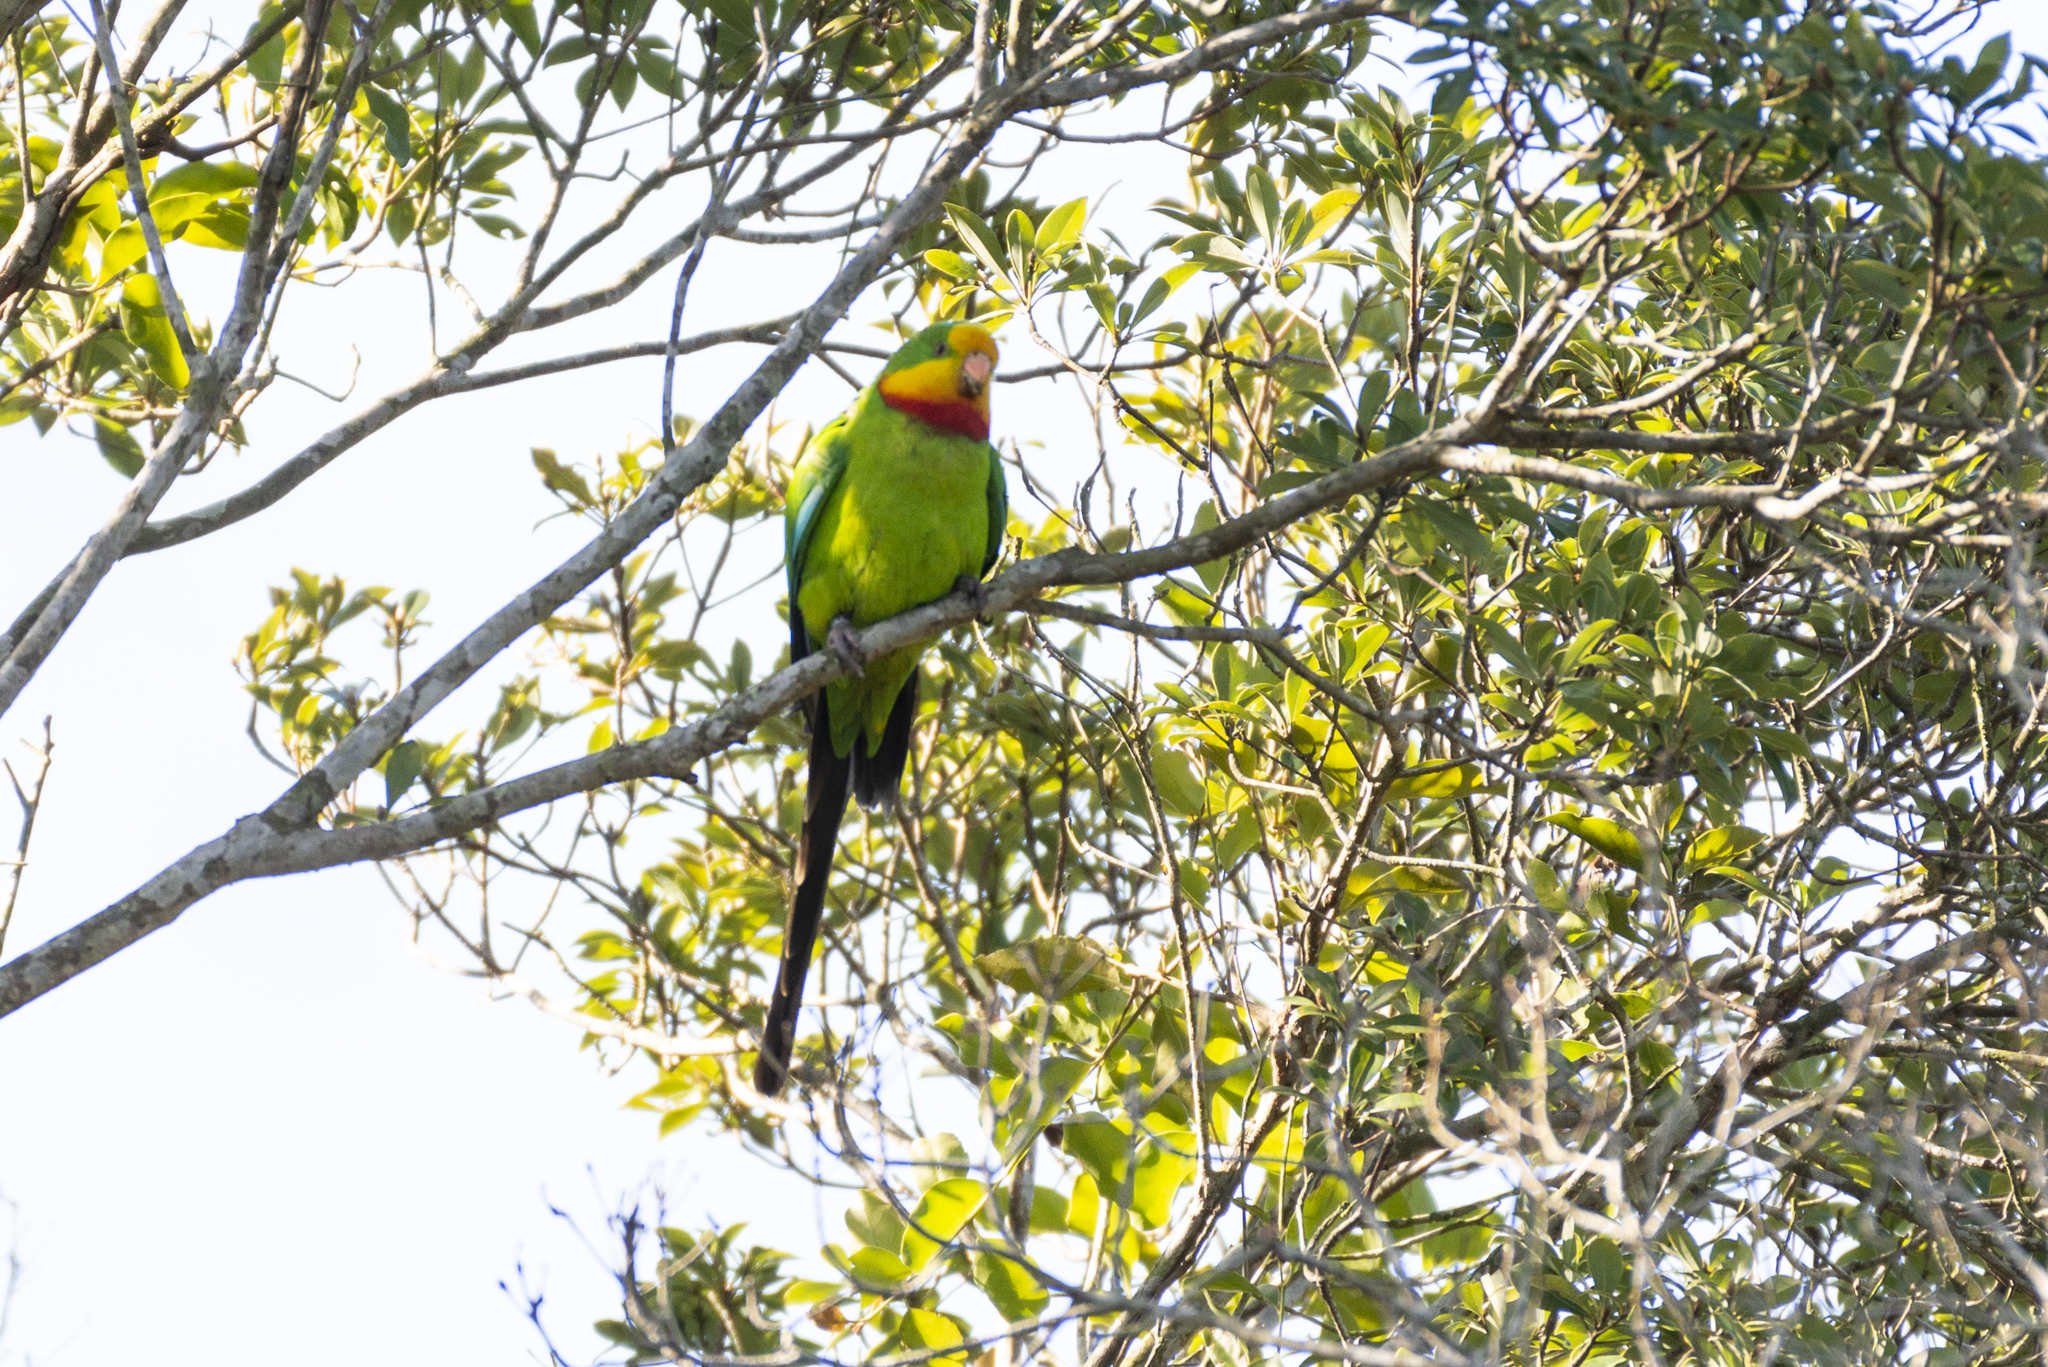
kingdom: Animalia
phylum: Chordata
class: Aves
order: Psittaciformes
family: Psittacidae
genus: Polytelis
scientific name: Polytelis swainsonii
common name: Superb parrot
